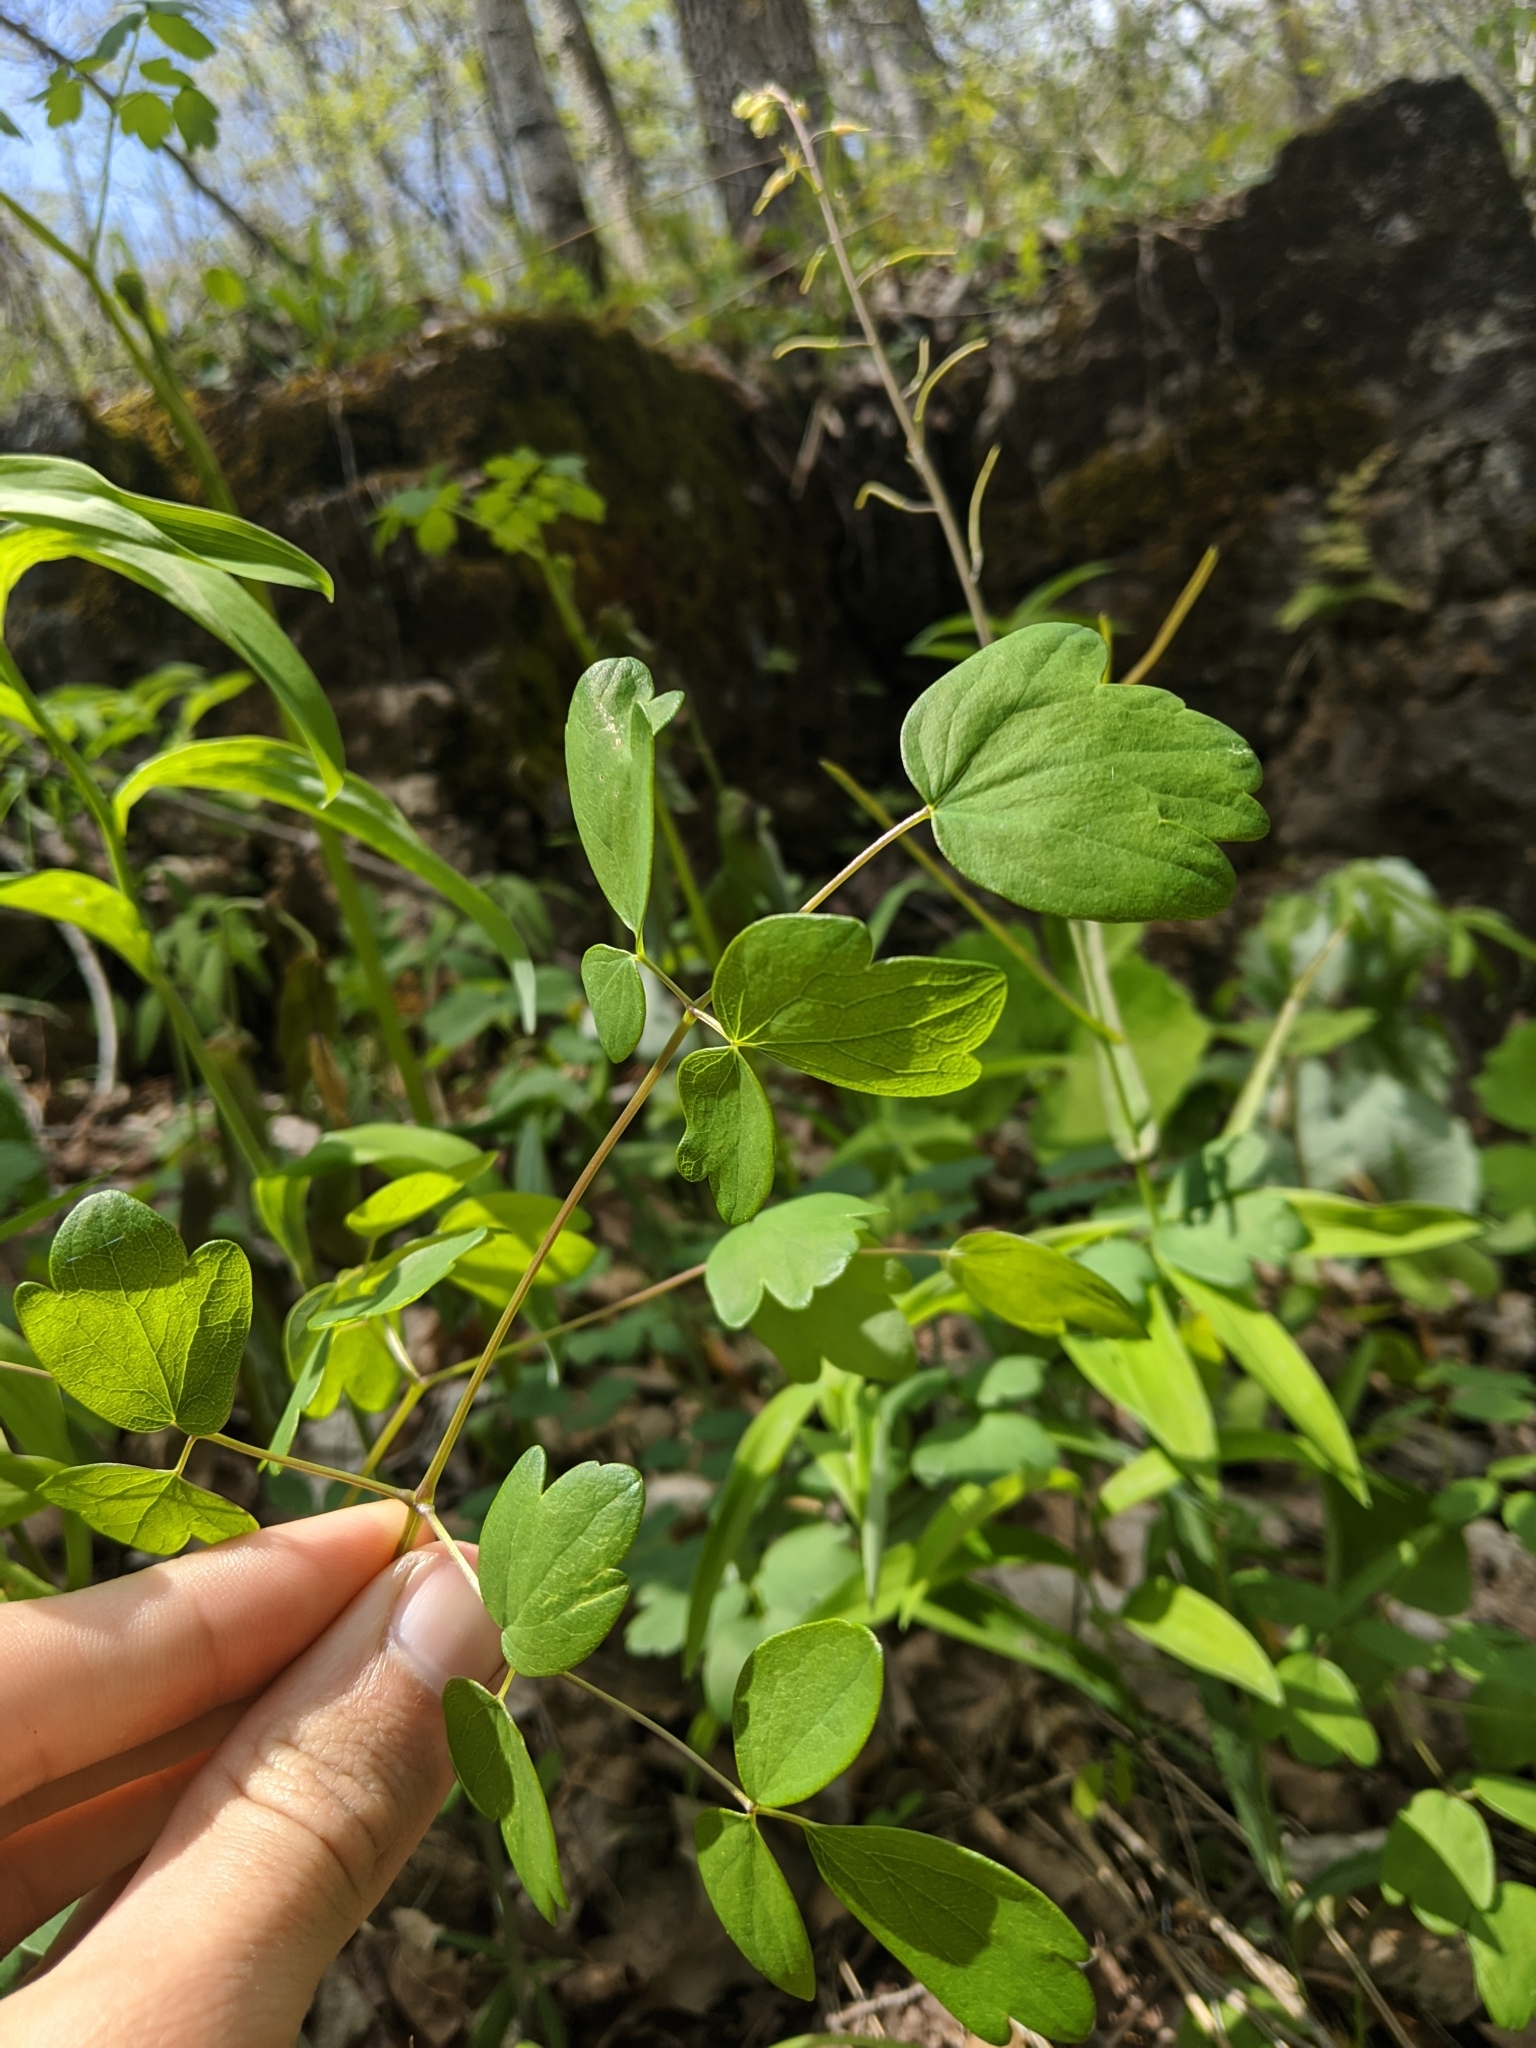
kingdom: Plantae
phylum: Tracheophyta
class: Magnoliopsida
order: Ranunculales
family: Ranunculaceae
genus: Thalictrum
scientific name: Thalictrum dasycarpum
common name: Purple meadow-rue
